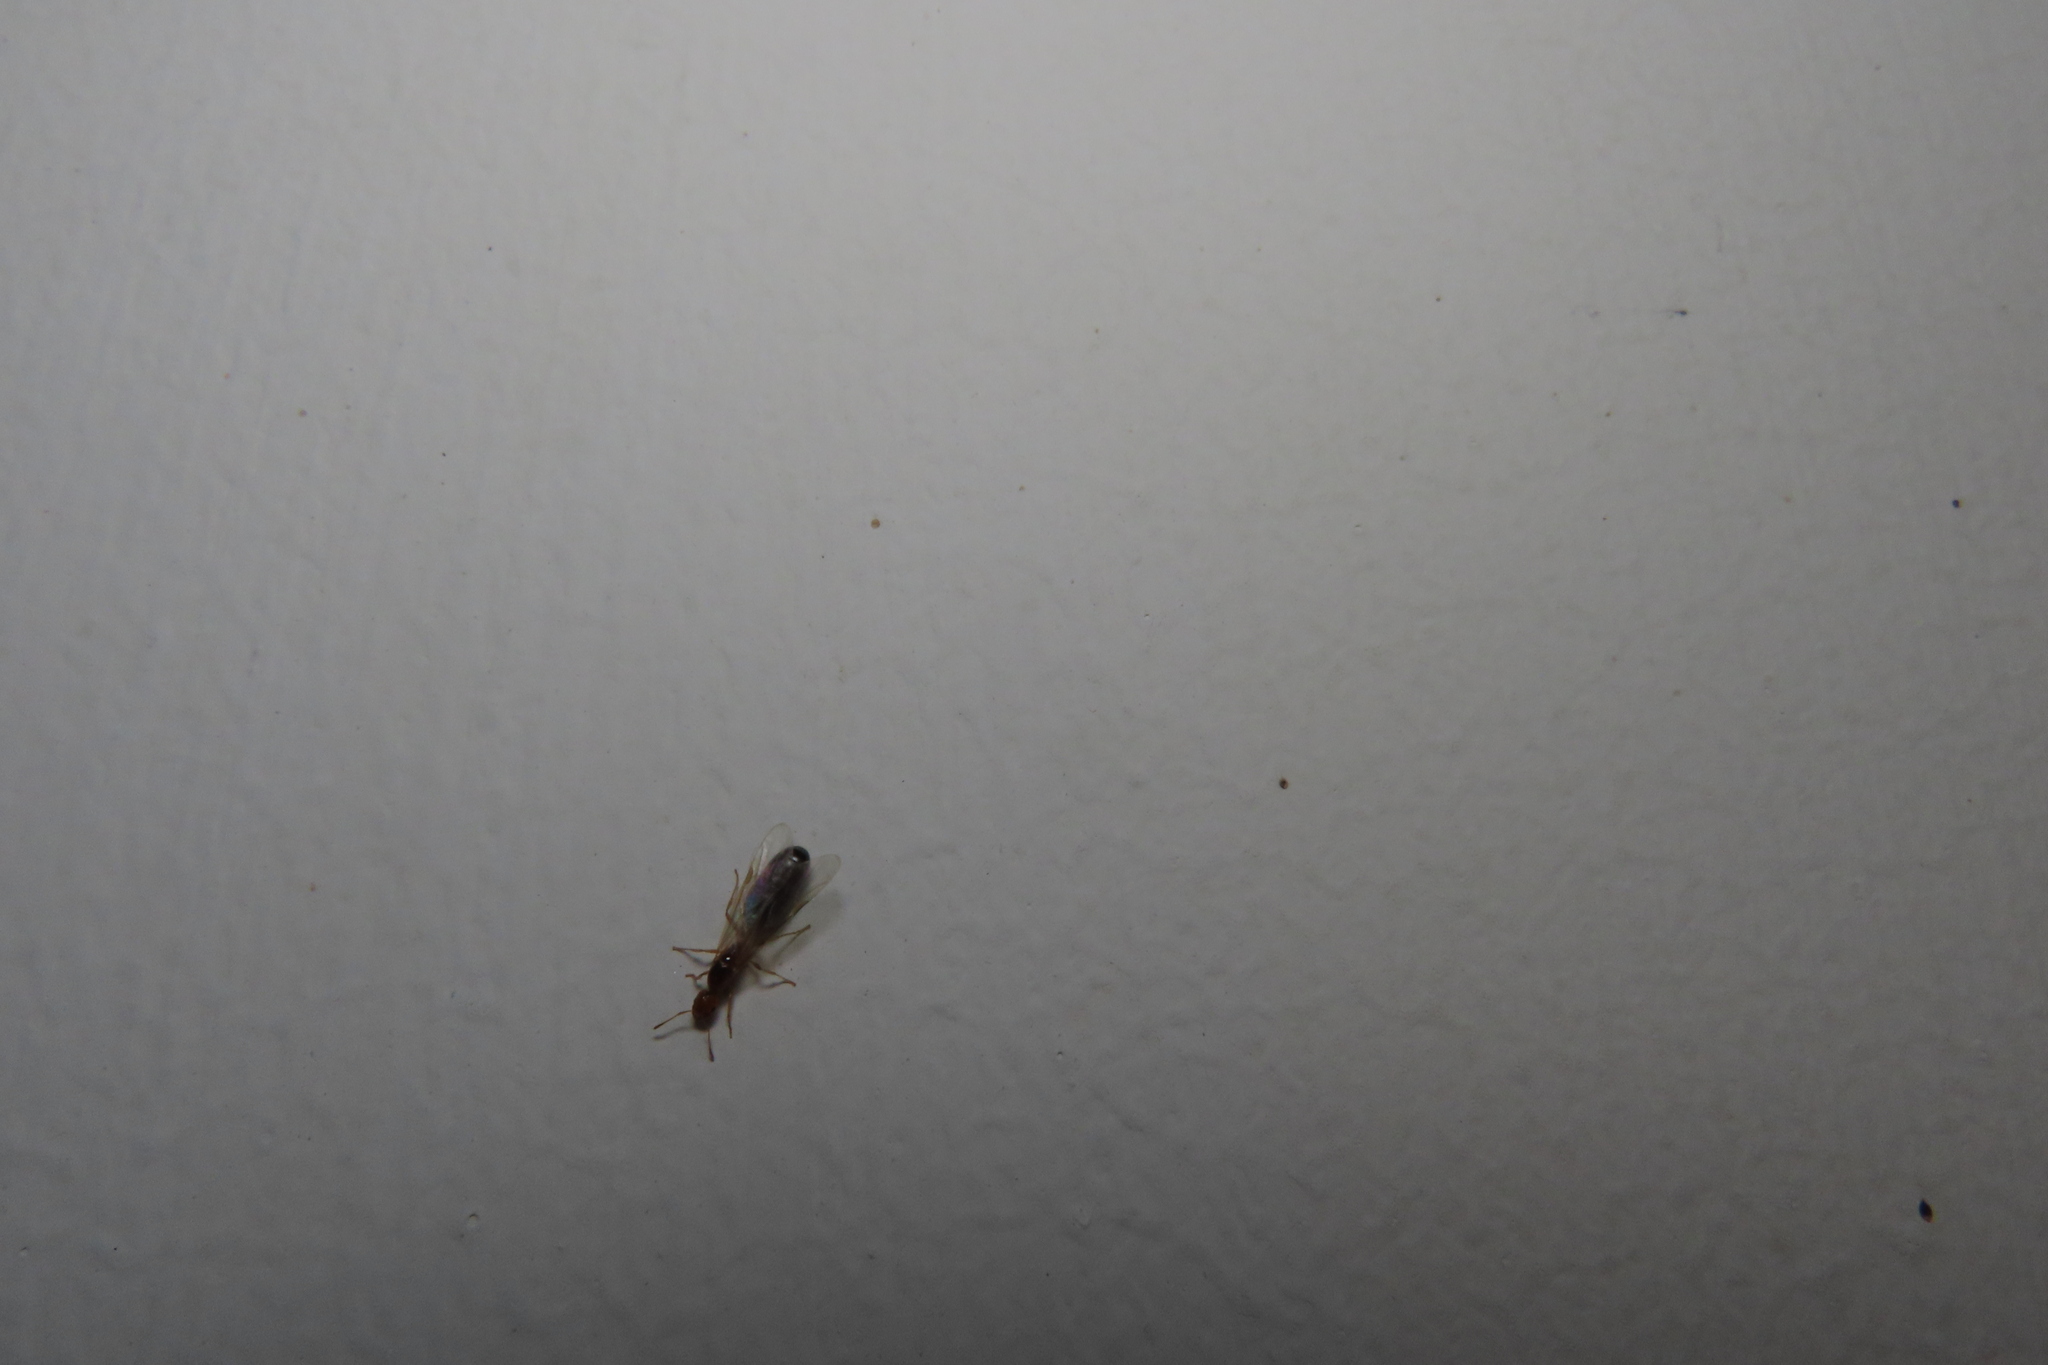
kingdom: Animalia
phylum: Arthropoda
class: Insecta
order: Hymenoptera
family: Formicidae
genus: Monomorium
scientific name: Monomorium destructor
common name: Destructive trailing ant
